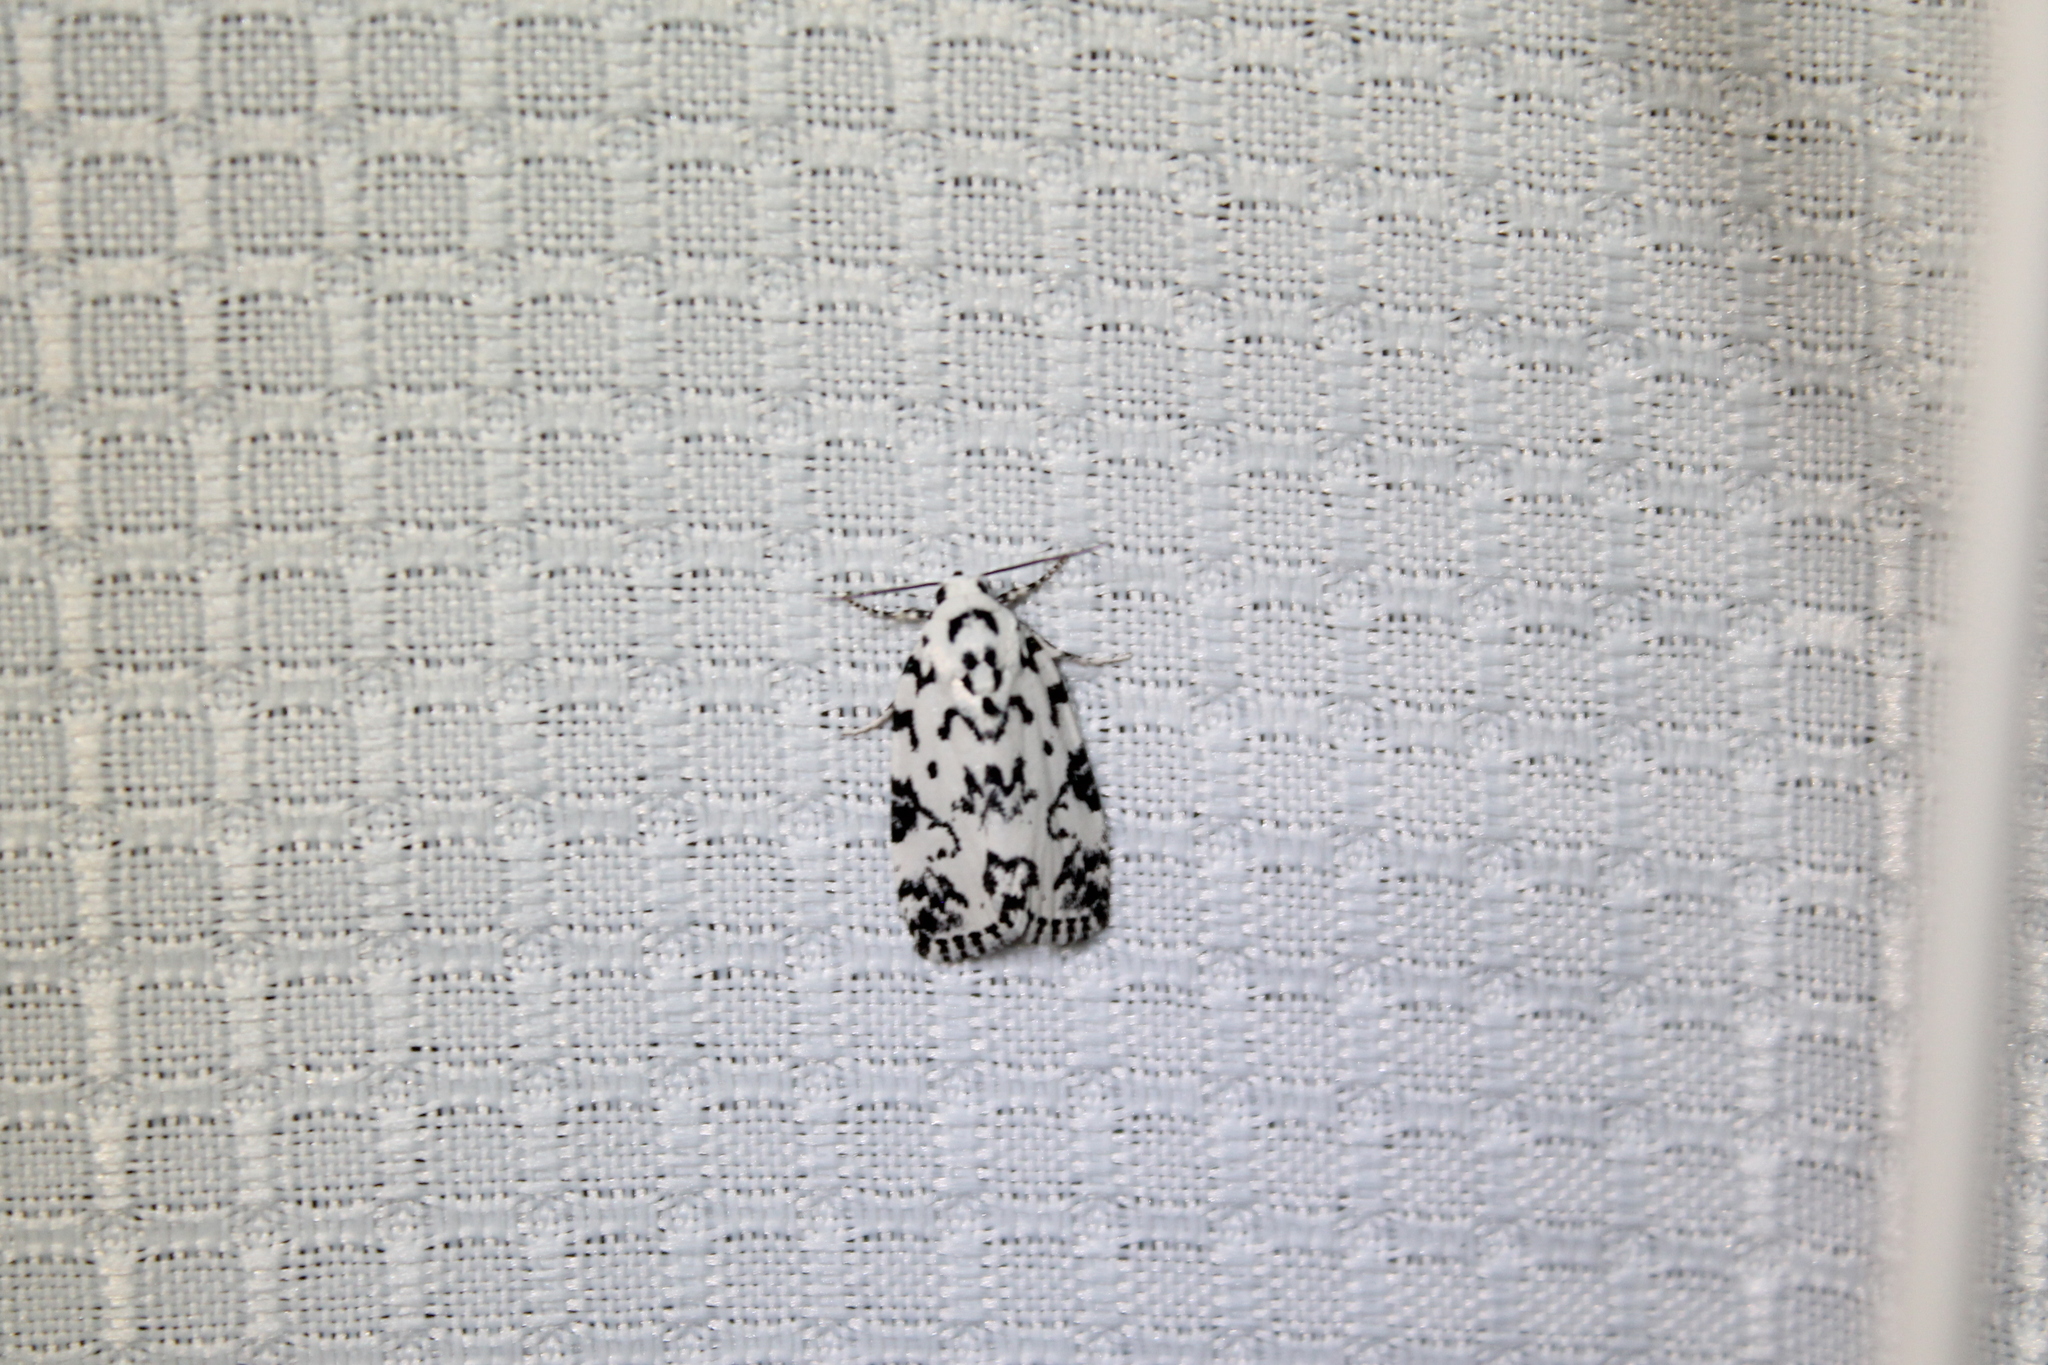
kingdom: Animalia
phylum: Arthropoda
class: Insecta
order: Lepidoptera
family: Noctuidae
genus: Polygrammate
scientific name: Polygrammate hebraeicum
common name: Hebrew moth
